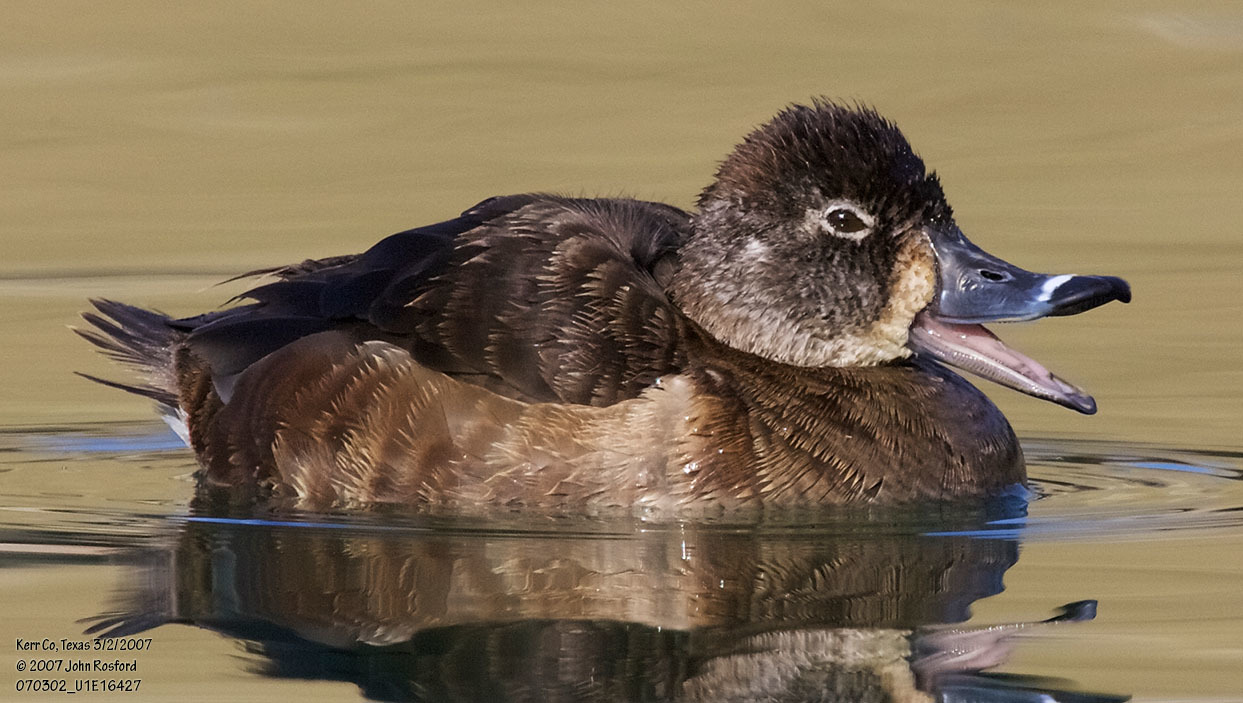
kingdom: Animalia
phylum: Chordata
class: Aves
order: Anseriformes
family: Anatidae
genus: Aythya
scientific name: Aythya collaris
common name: Ring-necked duck
